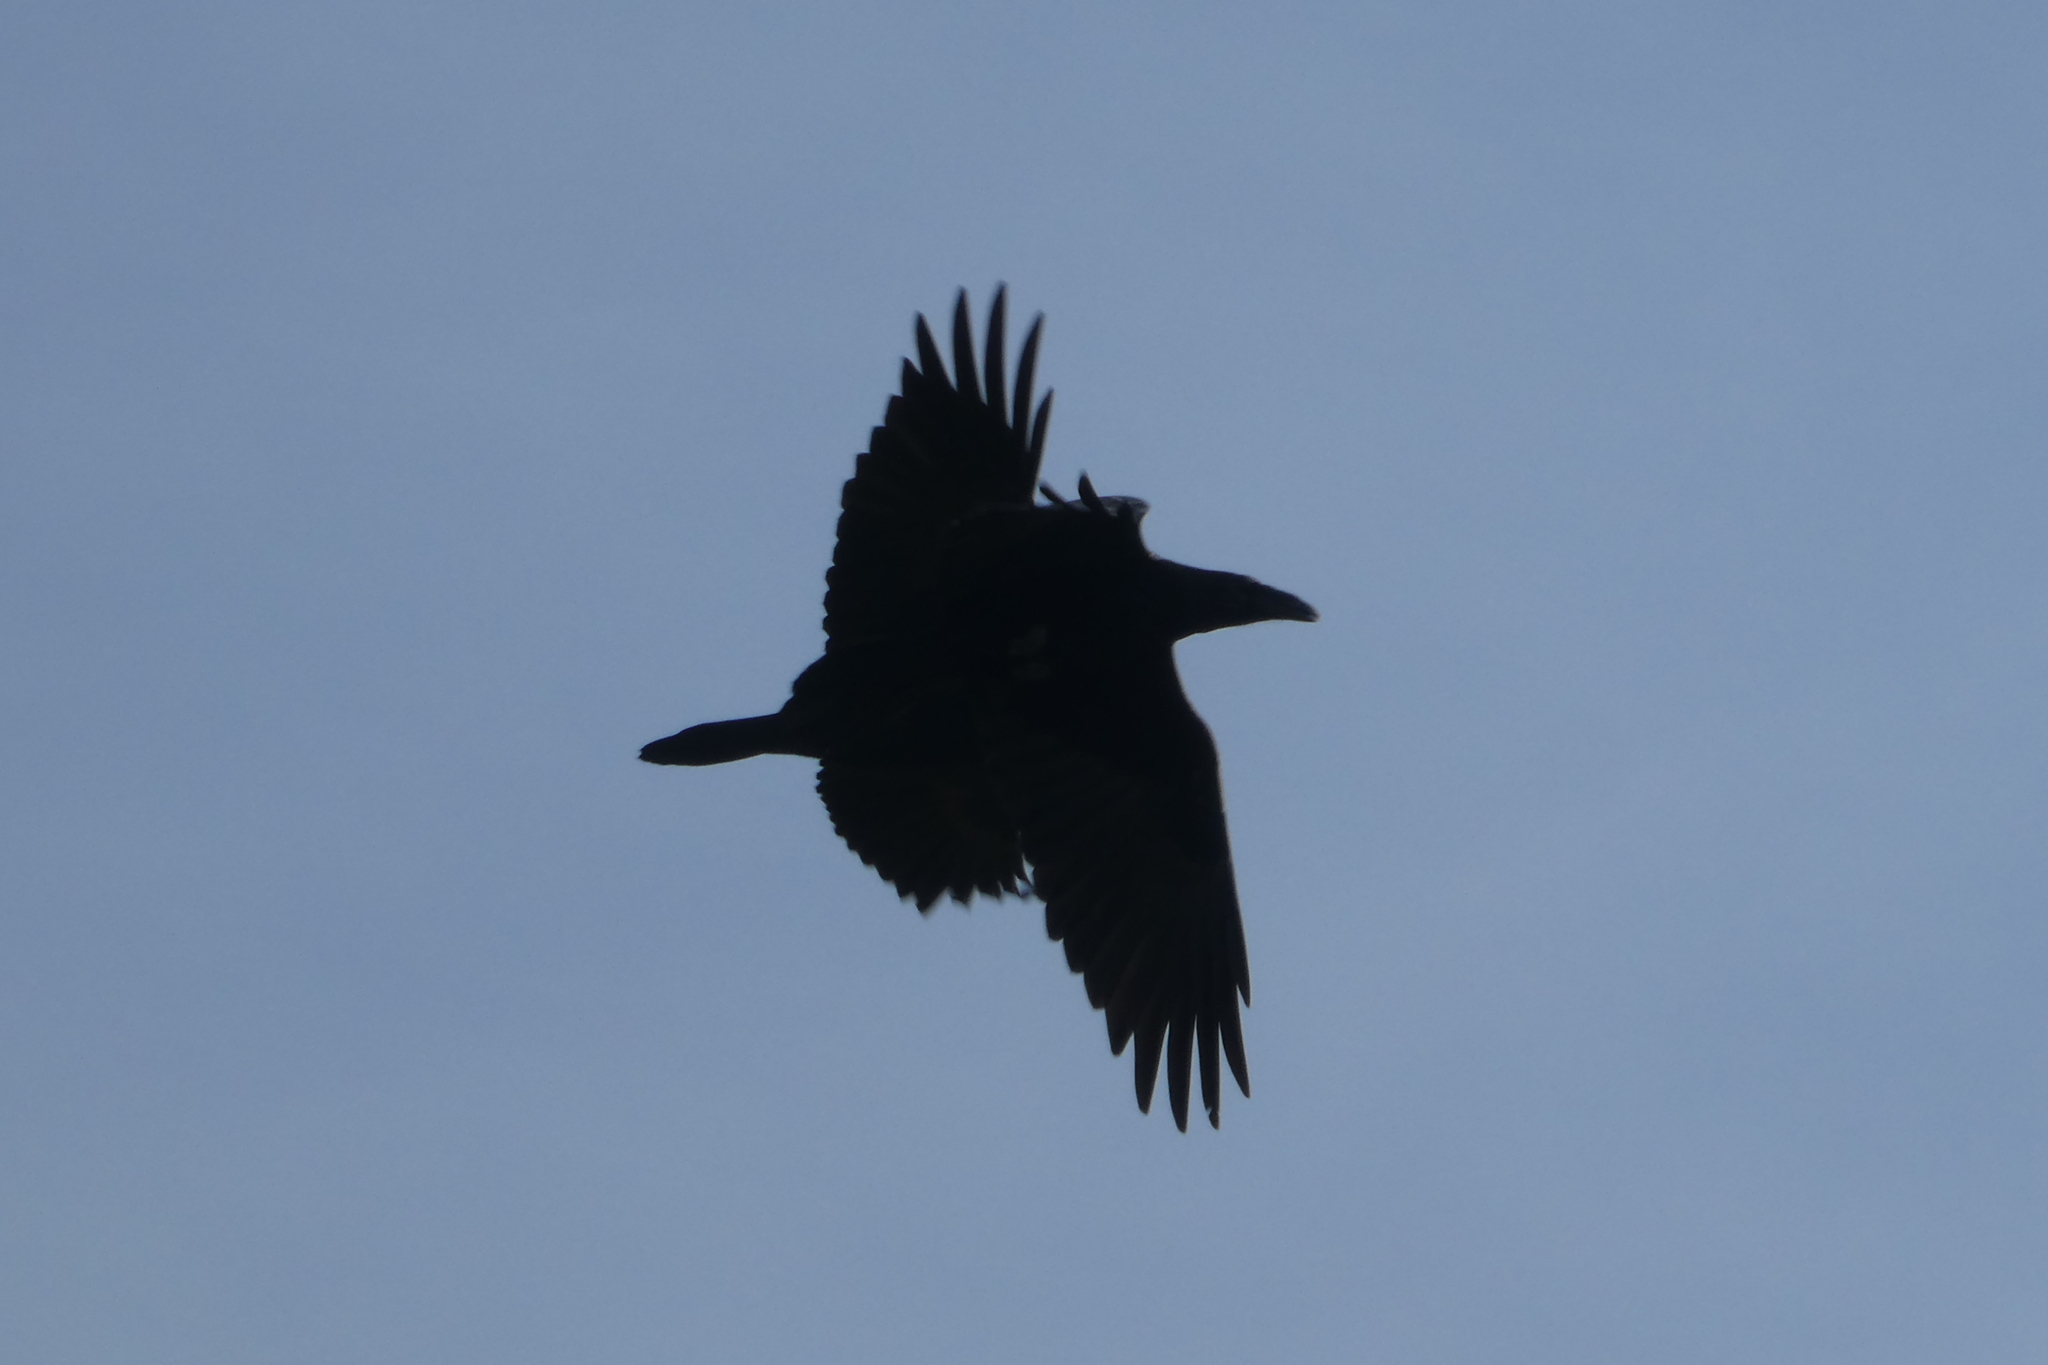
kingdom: Animalia
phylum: Chordata
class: Aves
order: Passeriformes
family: Corvidae
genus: Corvus
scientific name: Corvus corax
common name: Common raven
